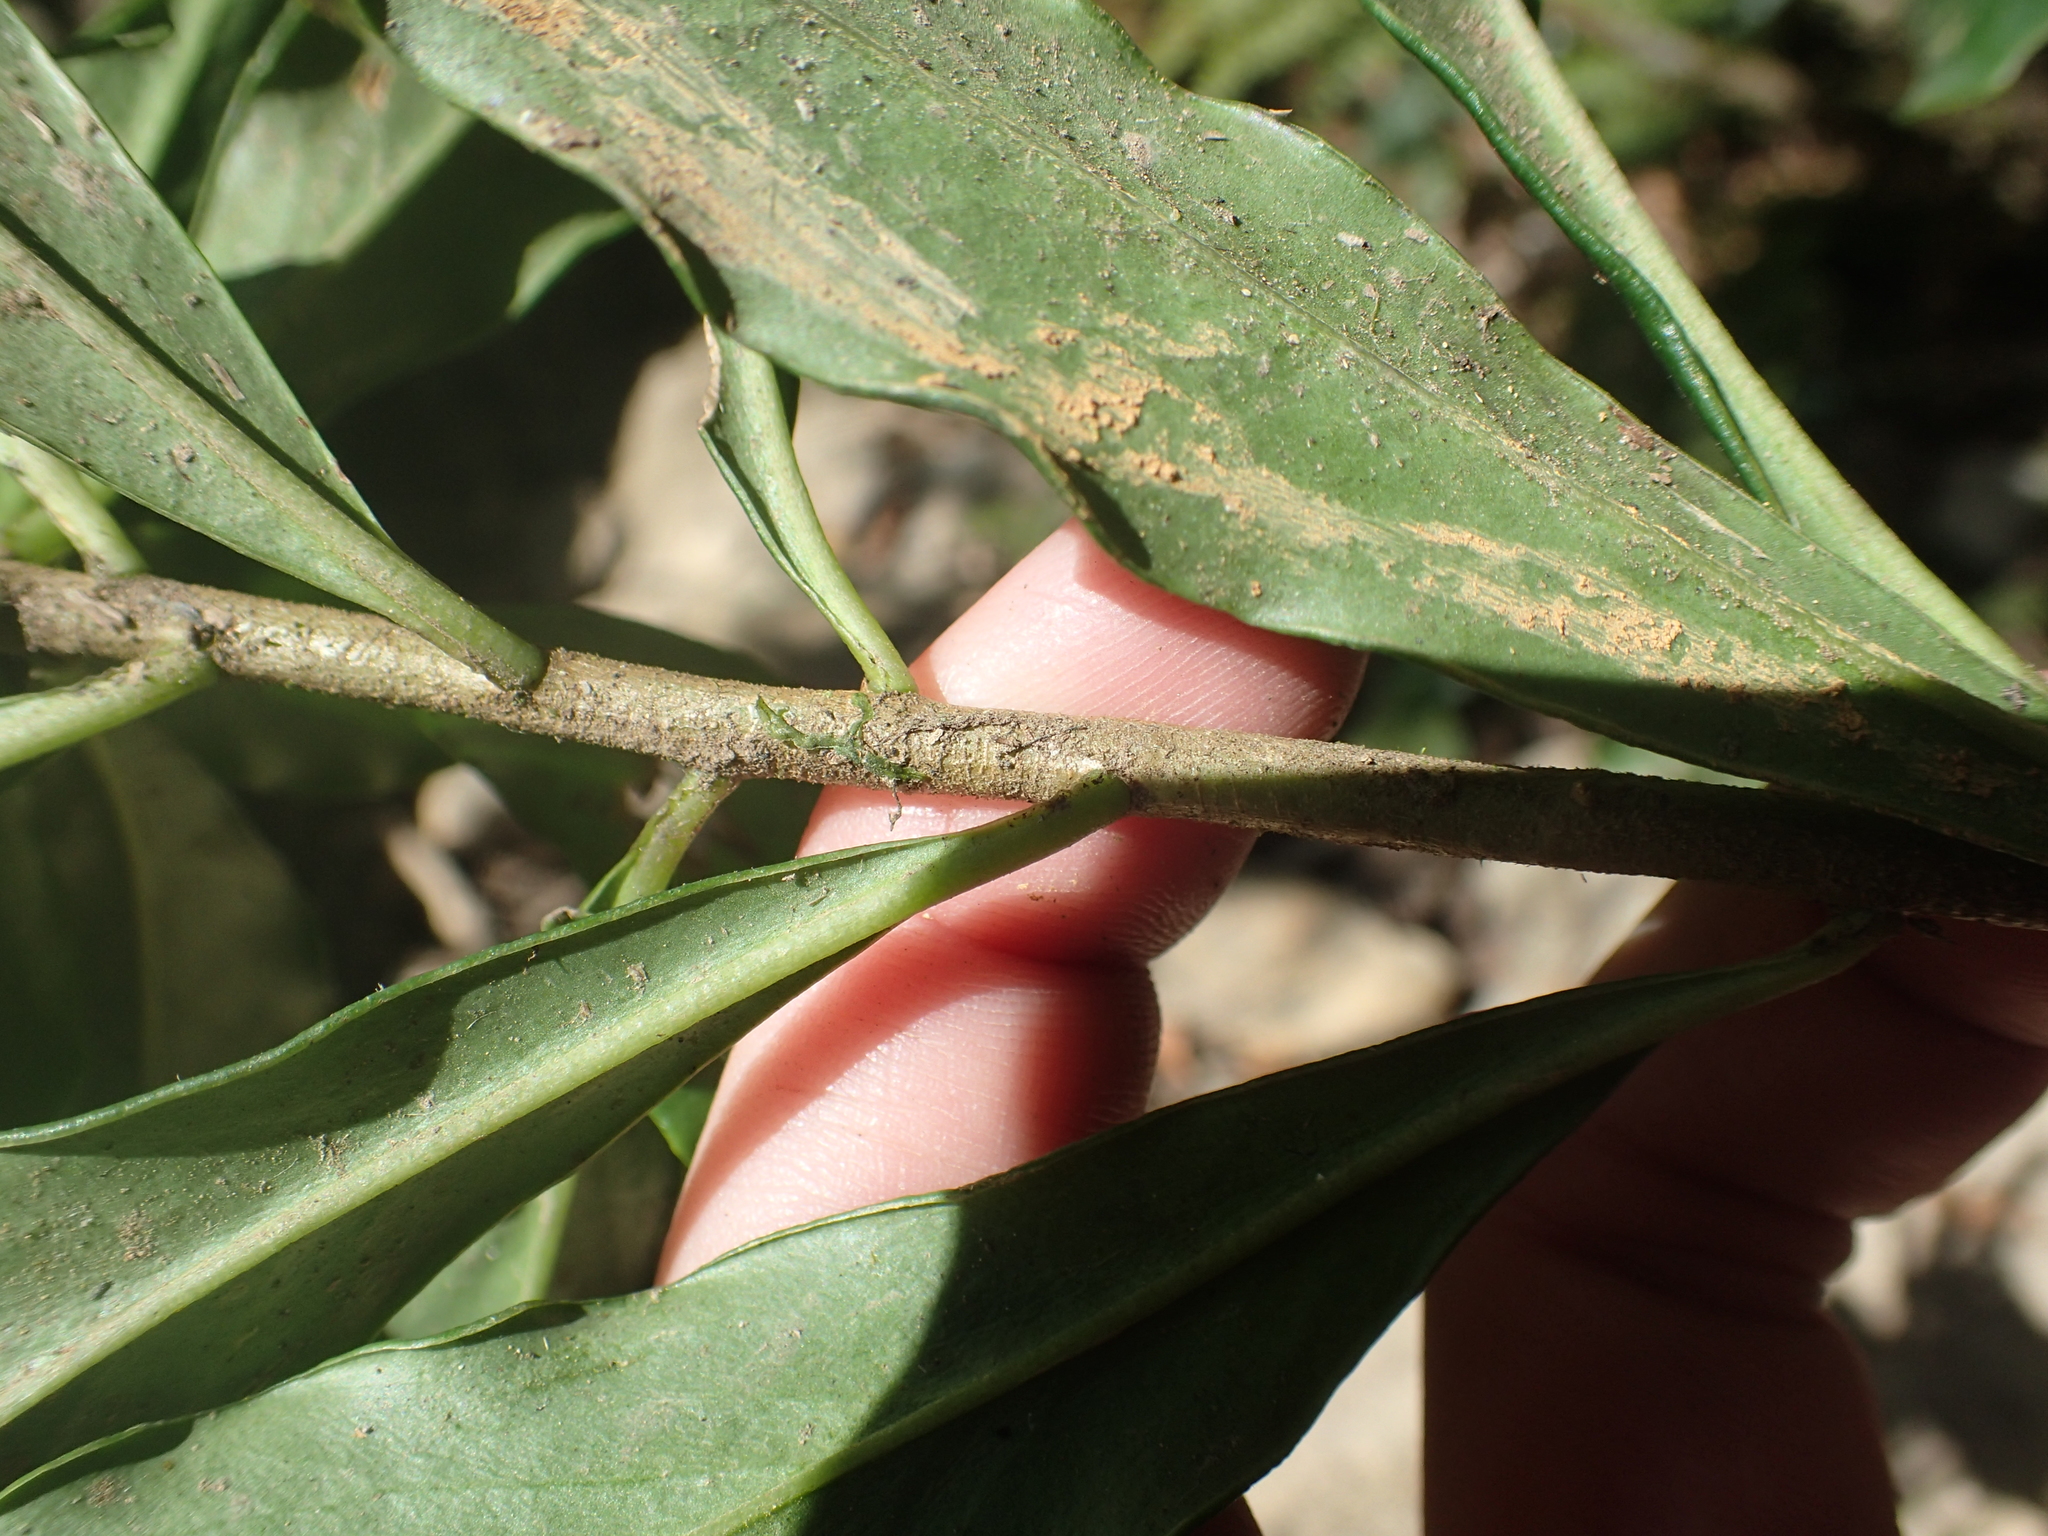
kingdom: Plantae
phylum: Tracheophyta
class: Magnoliopsida
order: Malvales
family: Thymelaeaceae
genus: Daphne
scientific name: Daphne arisanensis
